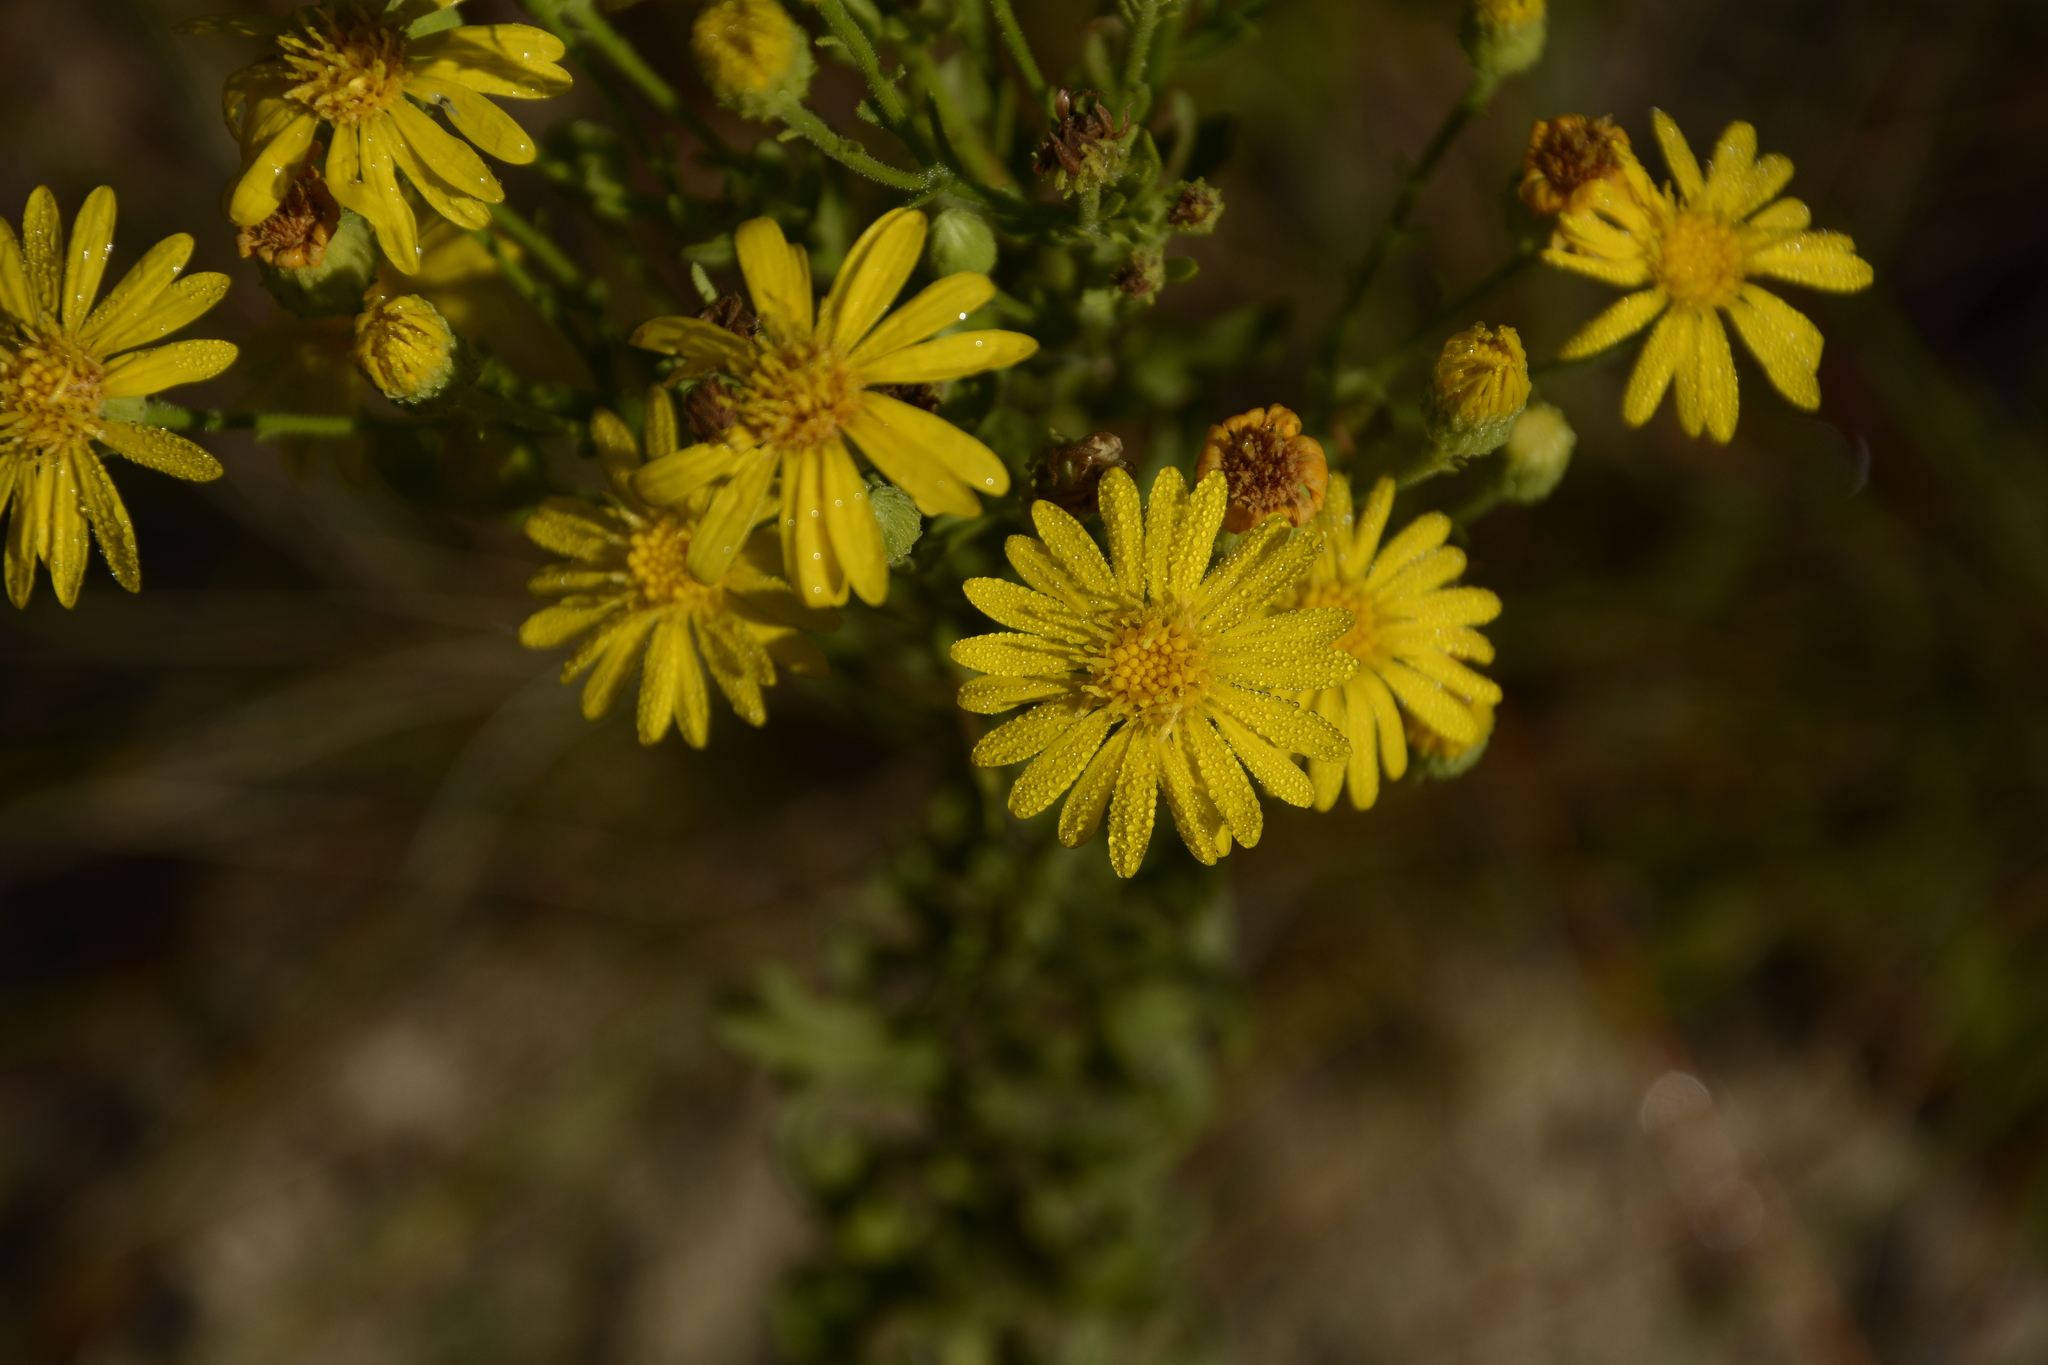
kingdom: Plantae
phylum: Tracheophyta
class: Magnoliopsida
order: Asterales
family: Asteraceae
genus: Chrysopsis
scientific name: Chrysopsis scabrella
